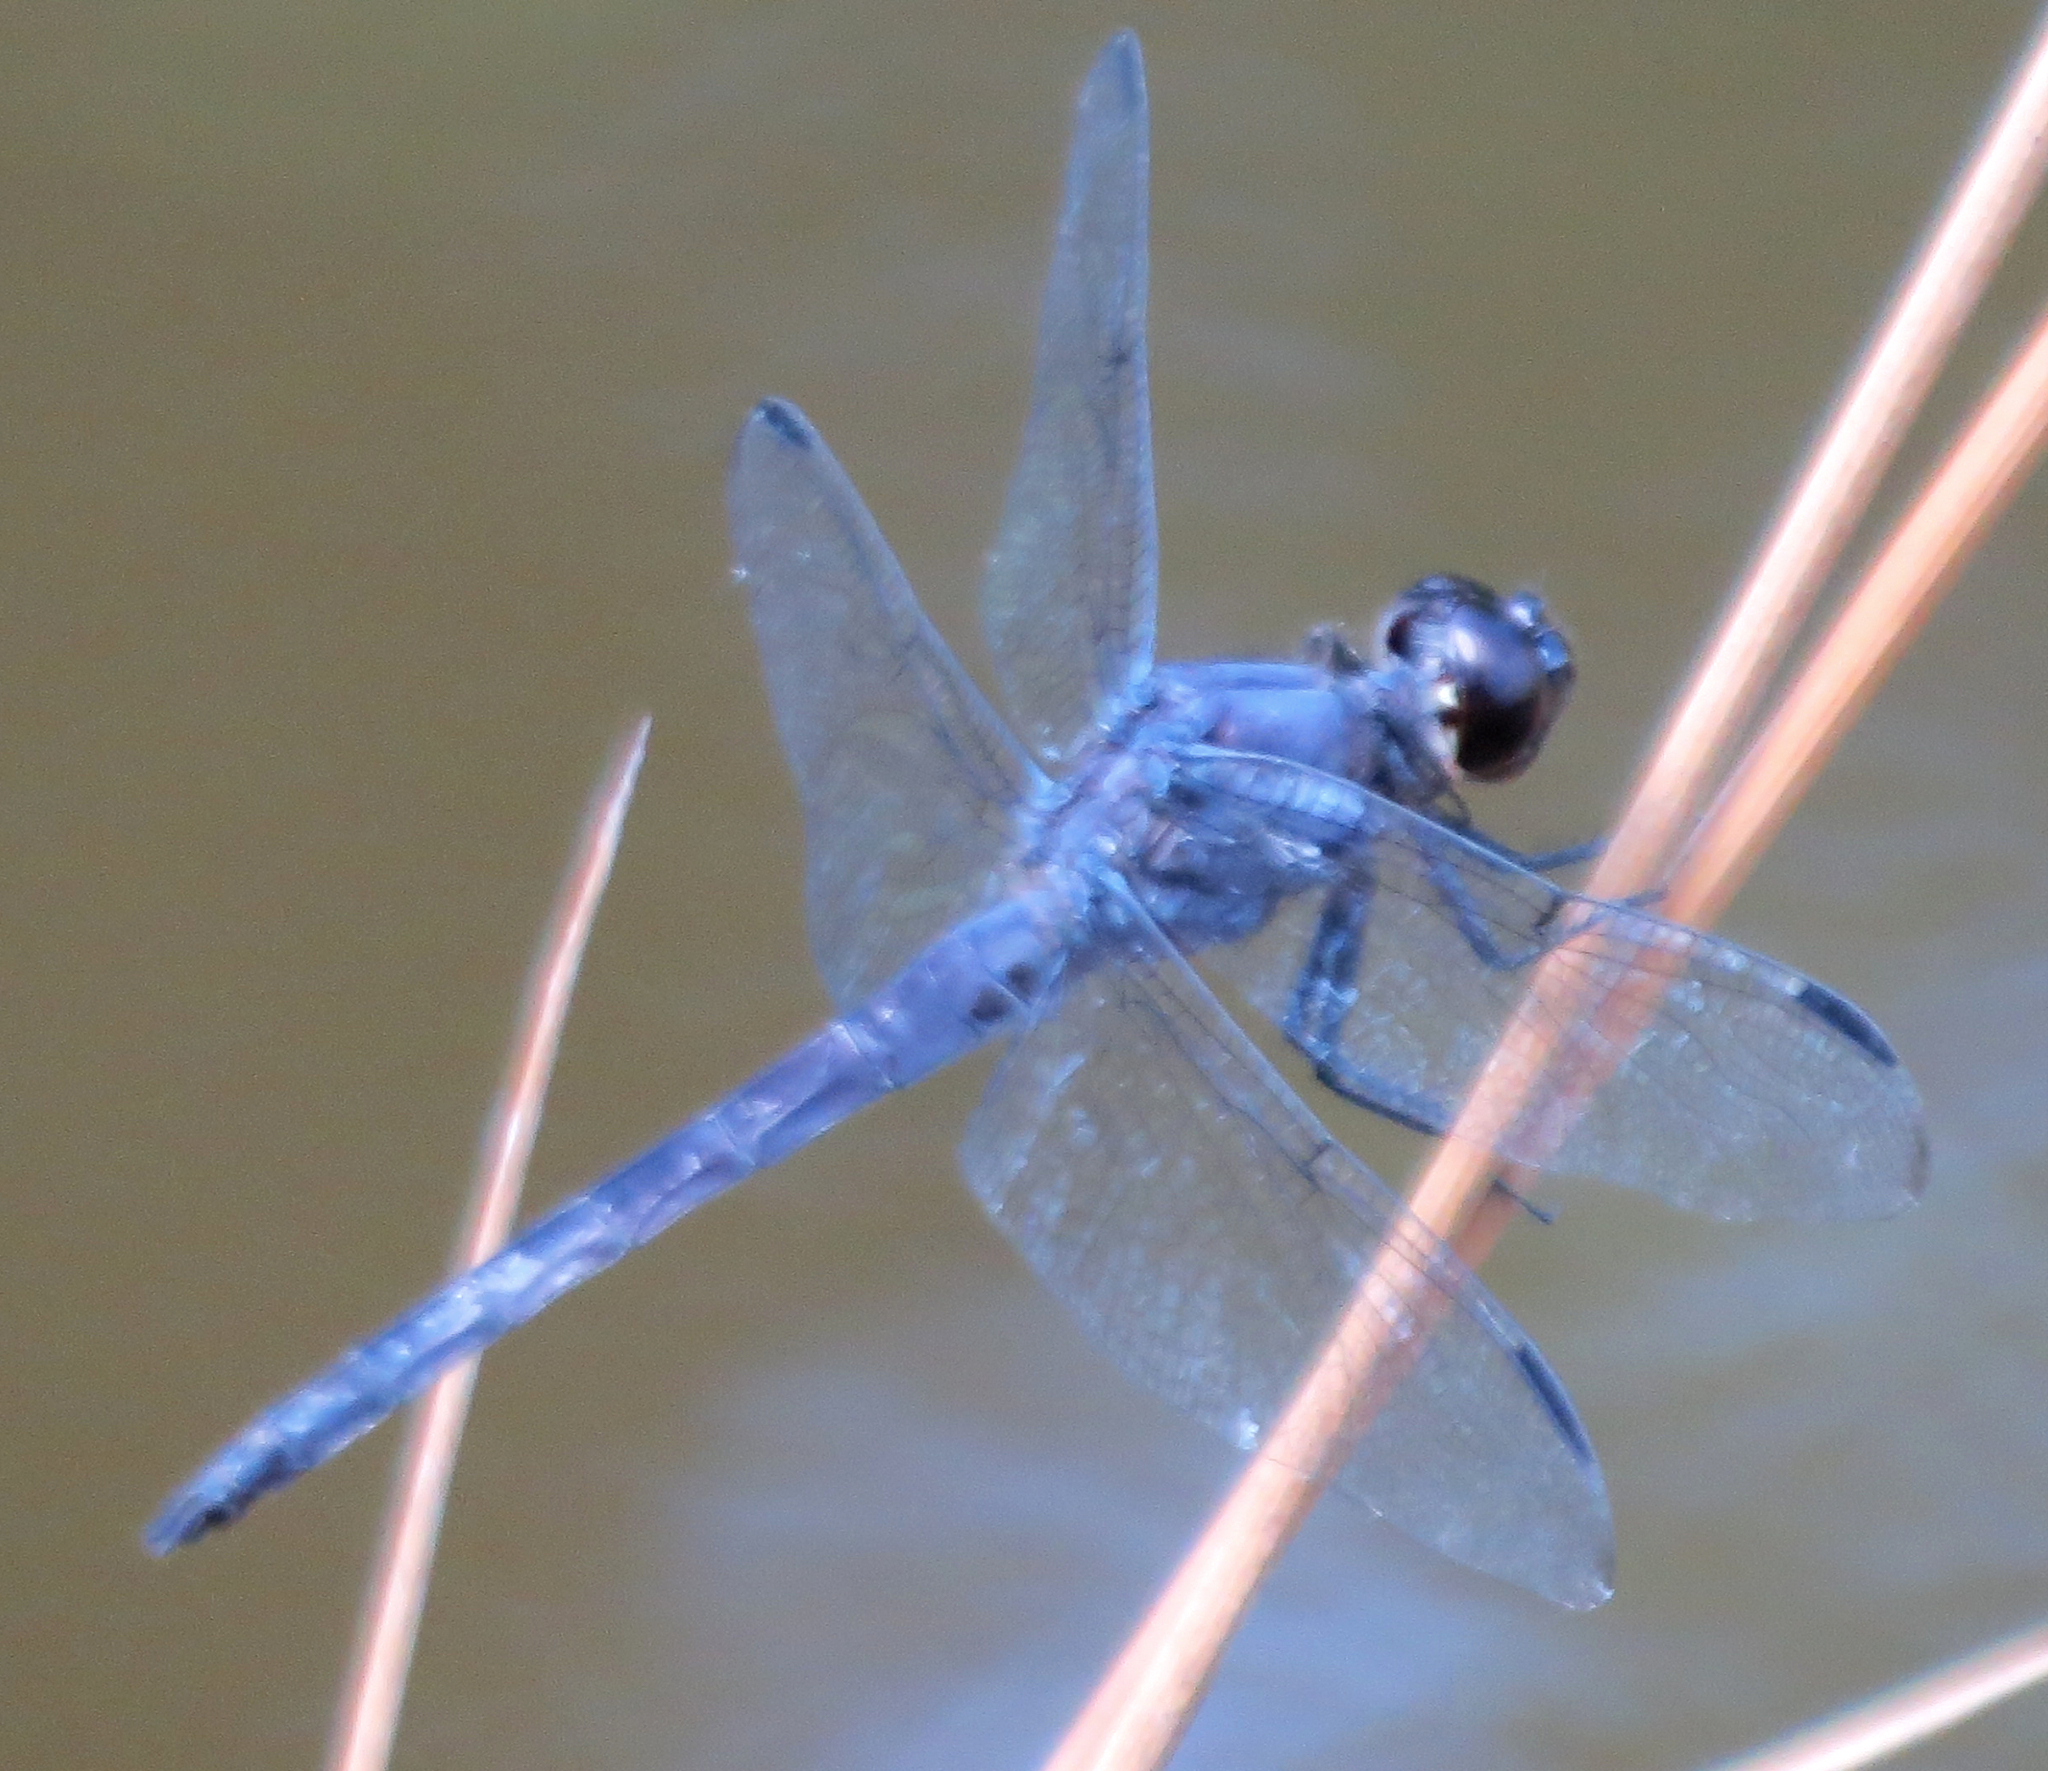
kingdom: Animalia
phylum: Arthropoda
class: Insecta
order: Odonata
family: Libellulidae
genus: Libellula
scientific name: Libellula incesta
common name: Slaty skimmer
